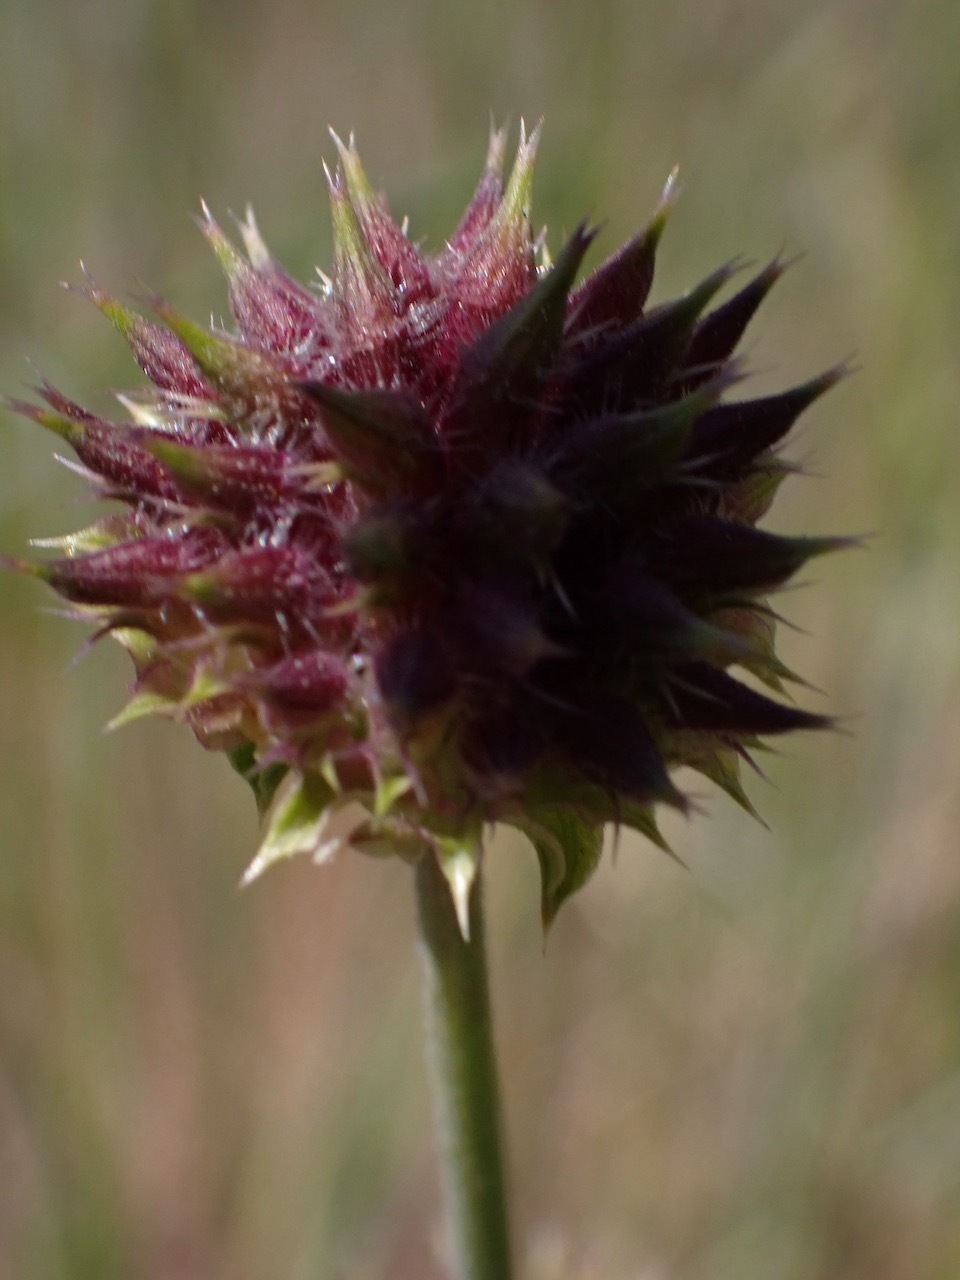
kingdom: Plantae
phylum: Tracheophyta
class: Magnoliopsida
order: Lamiales
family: Lamiaceae
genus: Salvia
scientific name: Salvia columbariae
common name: Chia
